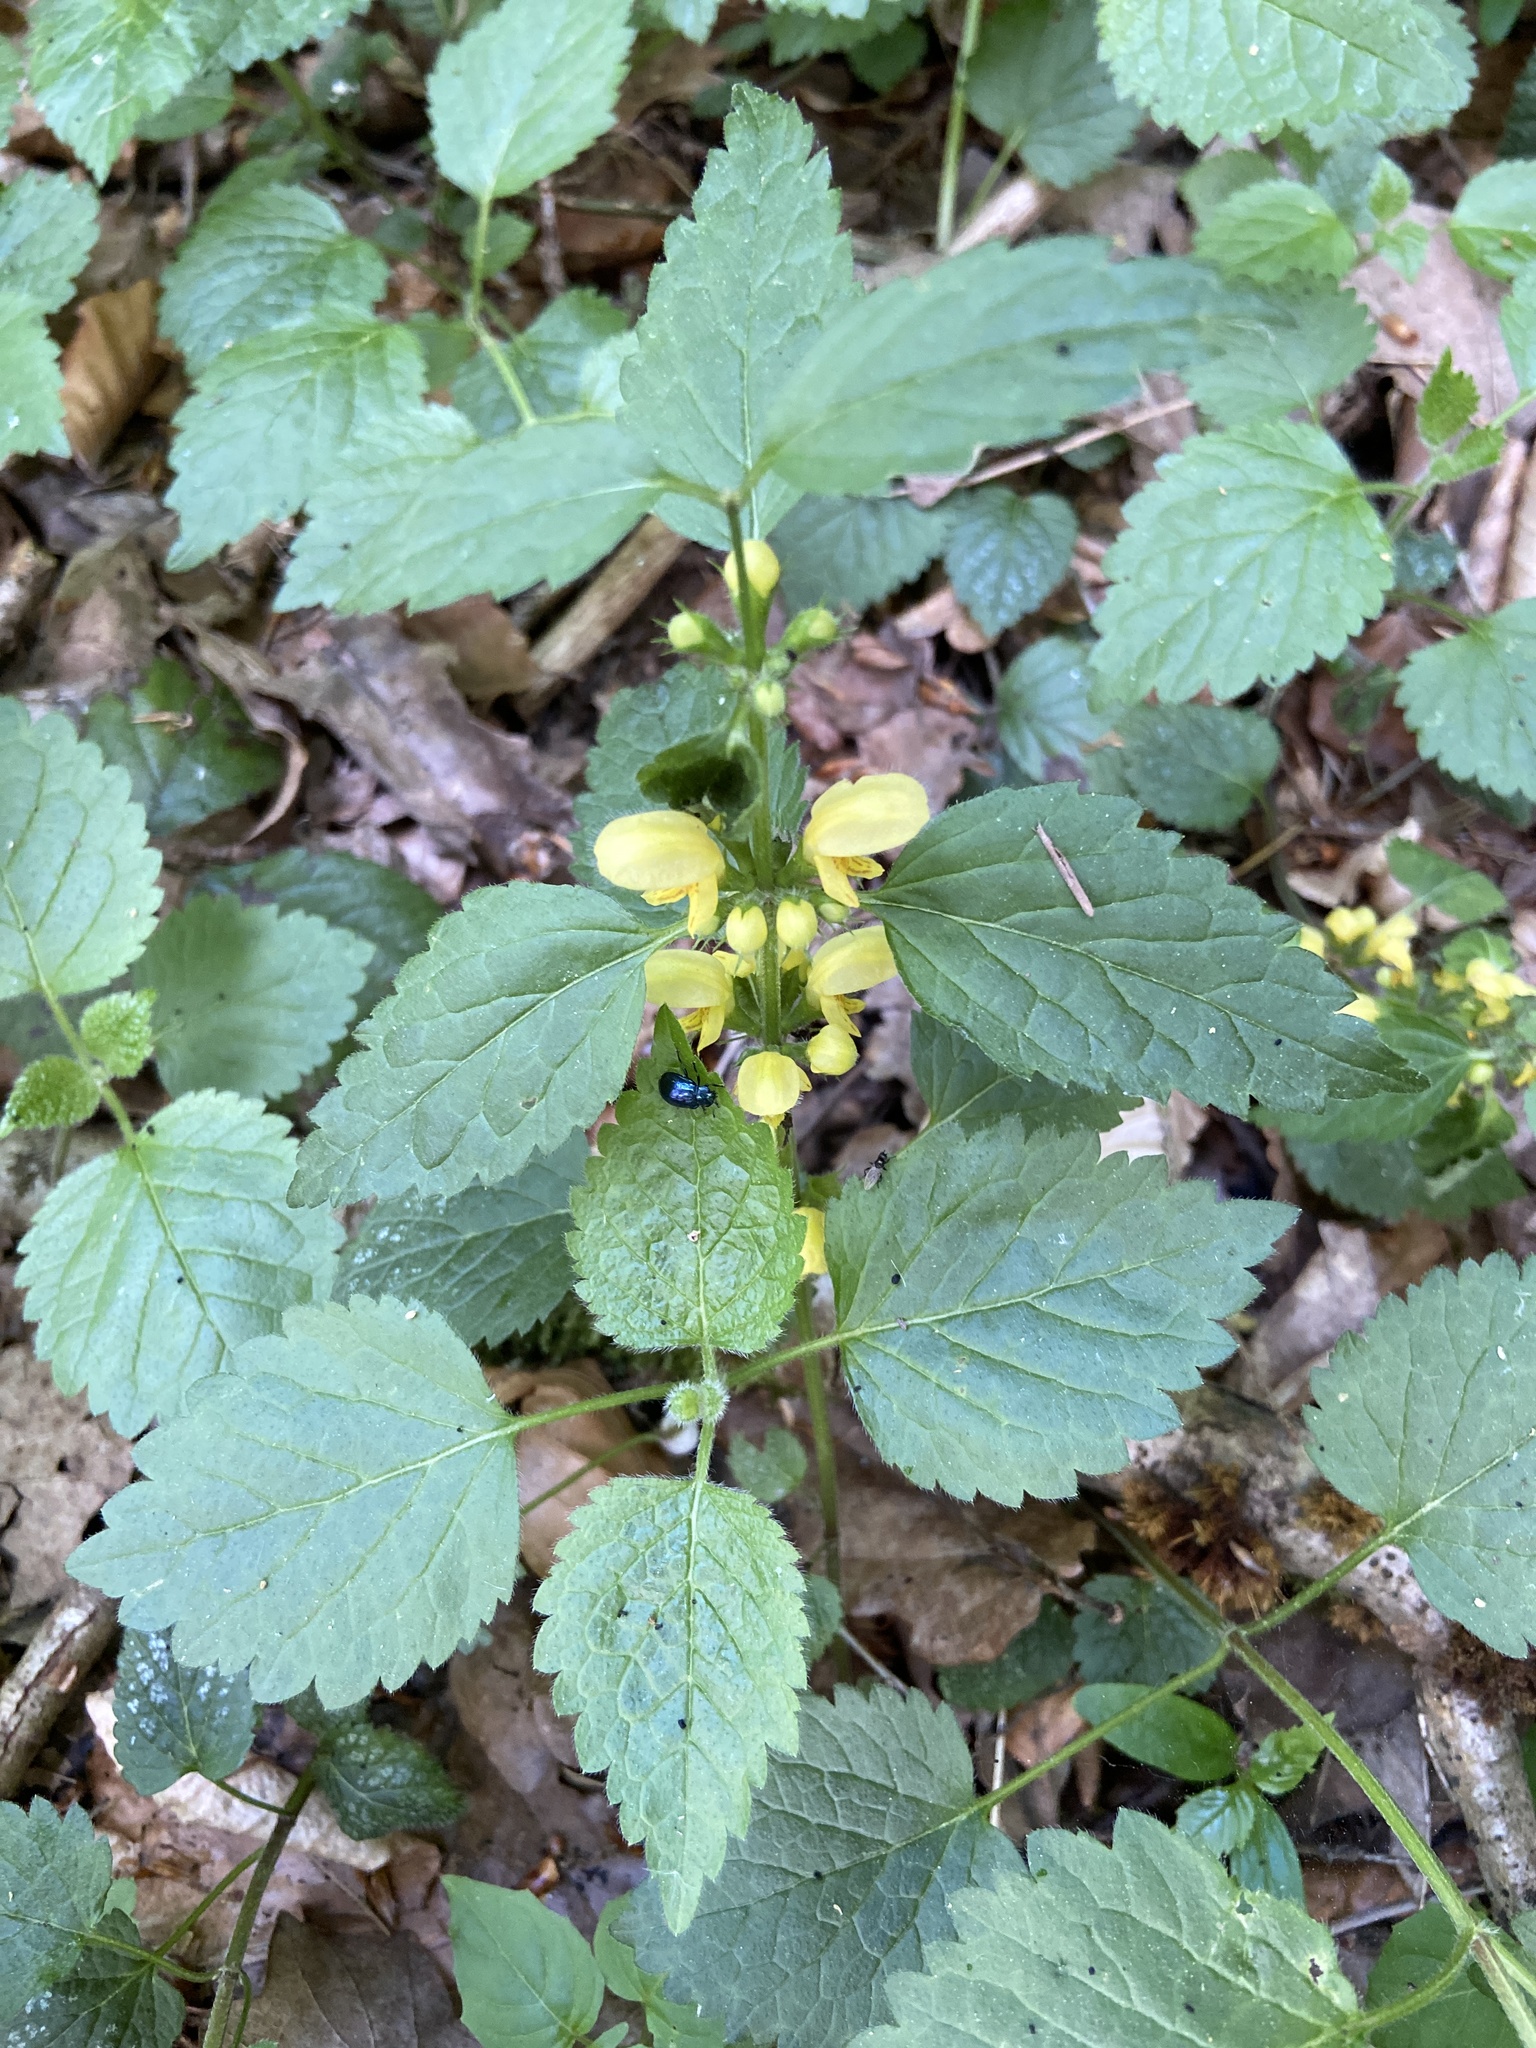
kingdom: Plantae
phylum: Tracheophyta
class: Magnoliopsida
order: Lamiales
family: Lamiaceae
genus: Lamium
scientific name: Lamium galeobdolon
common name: Yellow archangel
